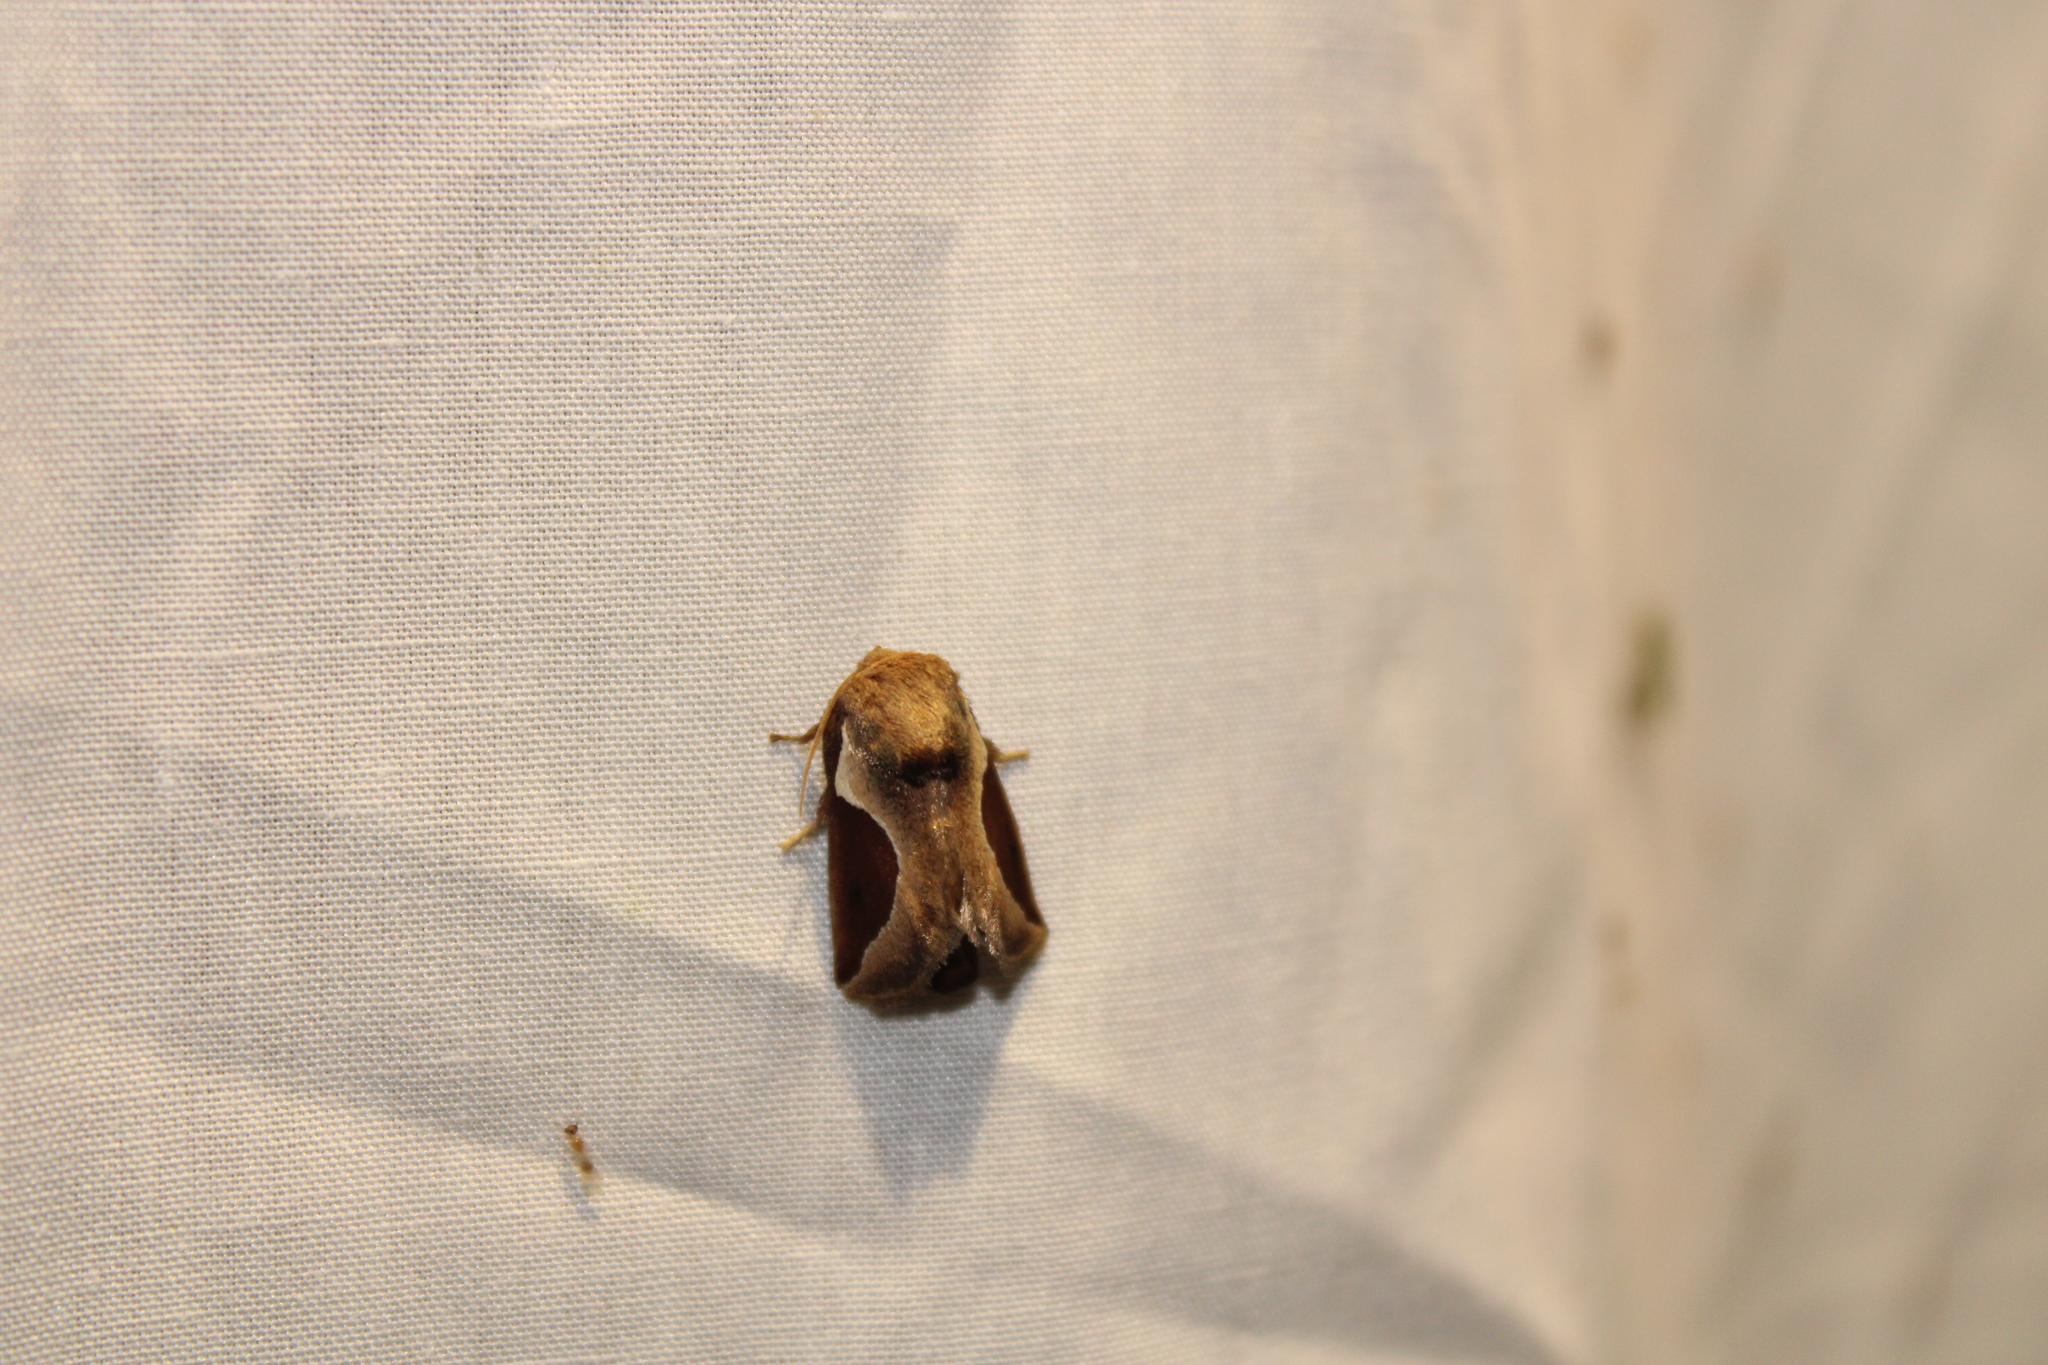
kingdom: Animalia
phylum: Arthropoda
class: Insecta
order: Lepidoptera
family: Limacodidae
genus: Prolimacodes
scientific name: Prolimacodes badia
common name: Skiff moth
